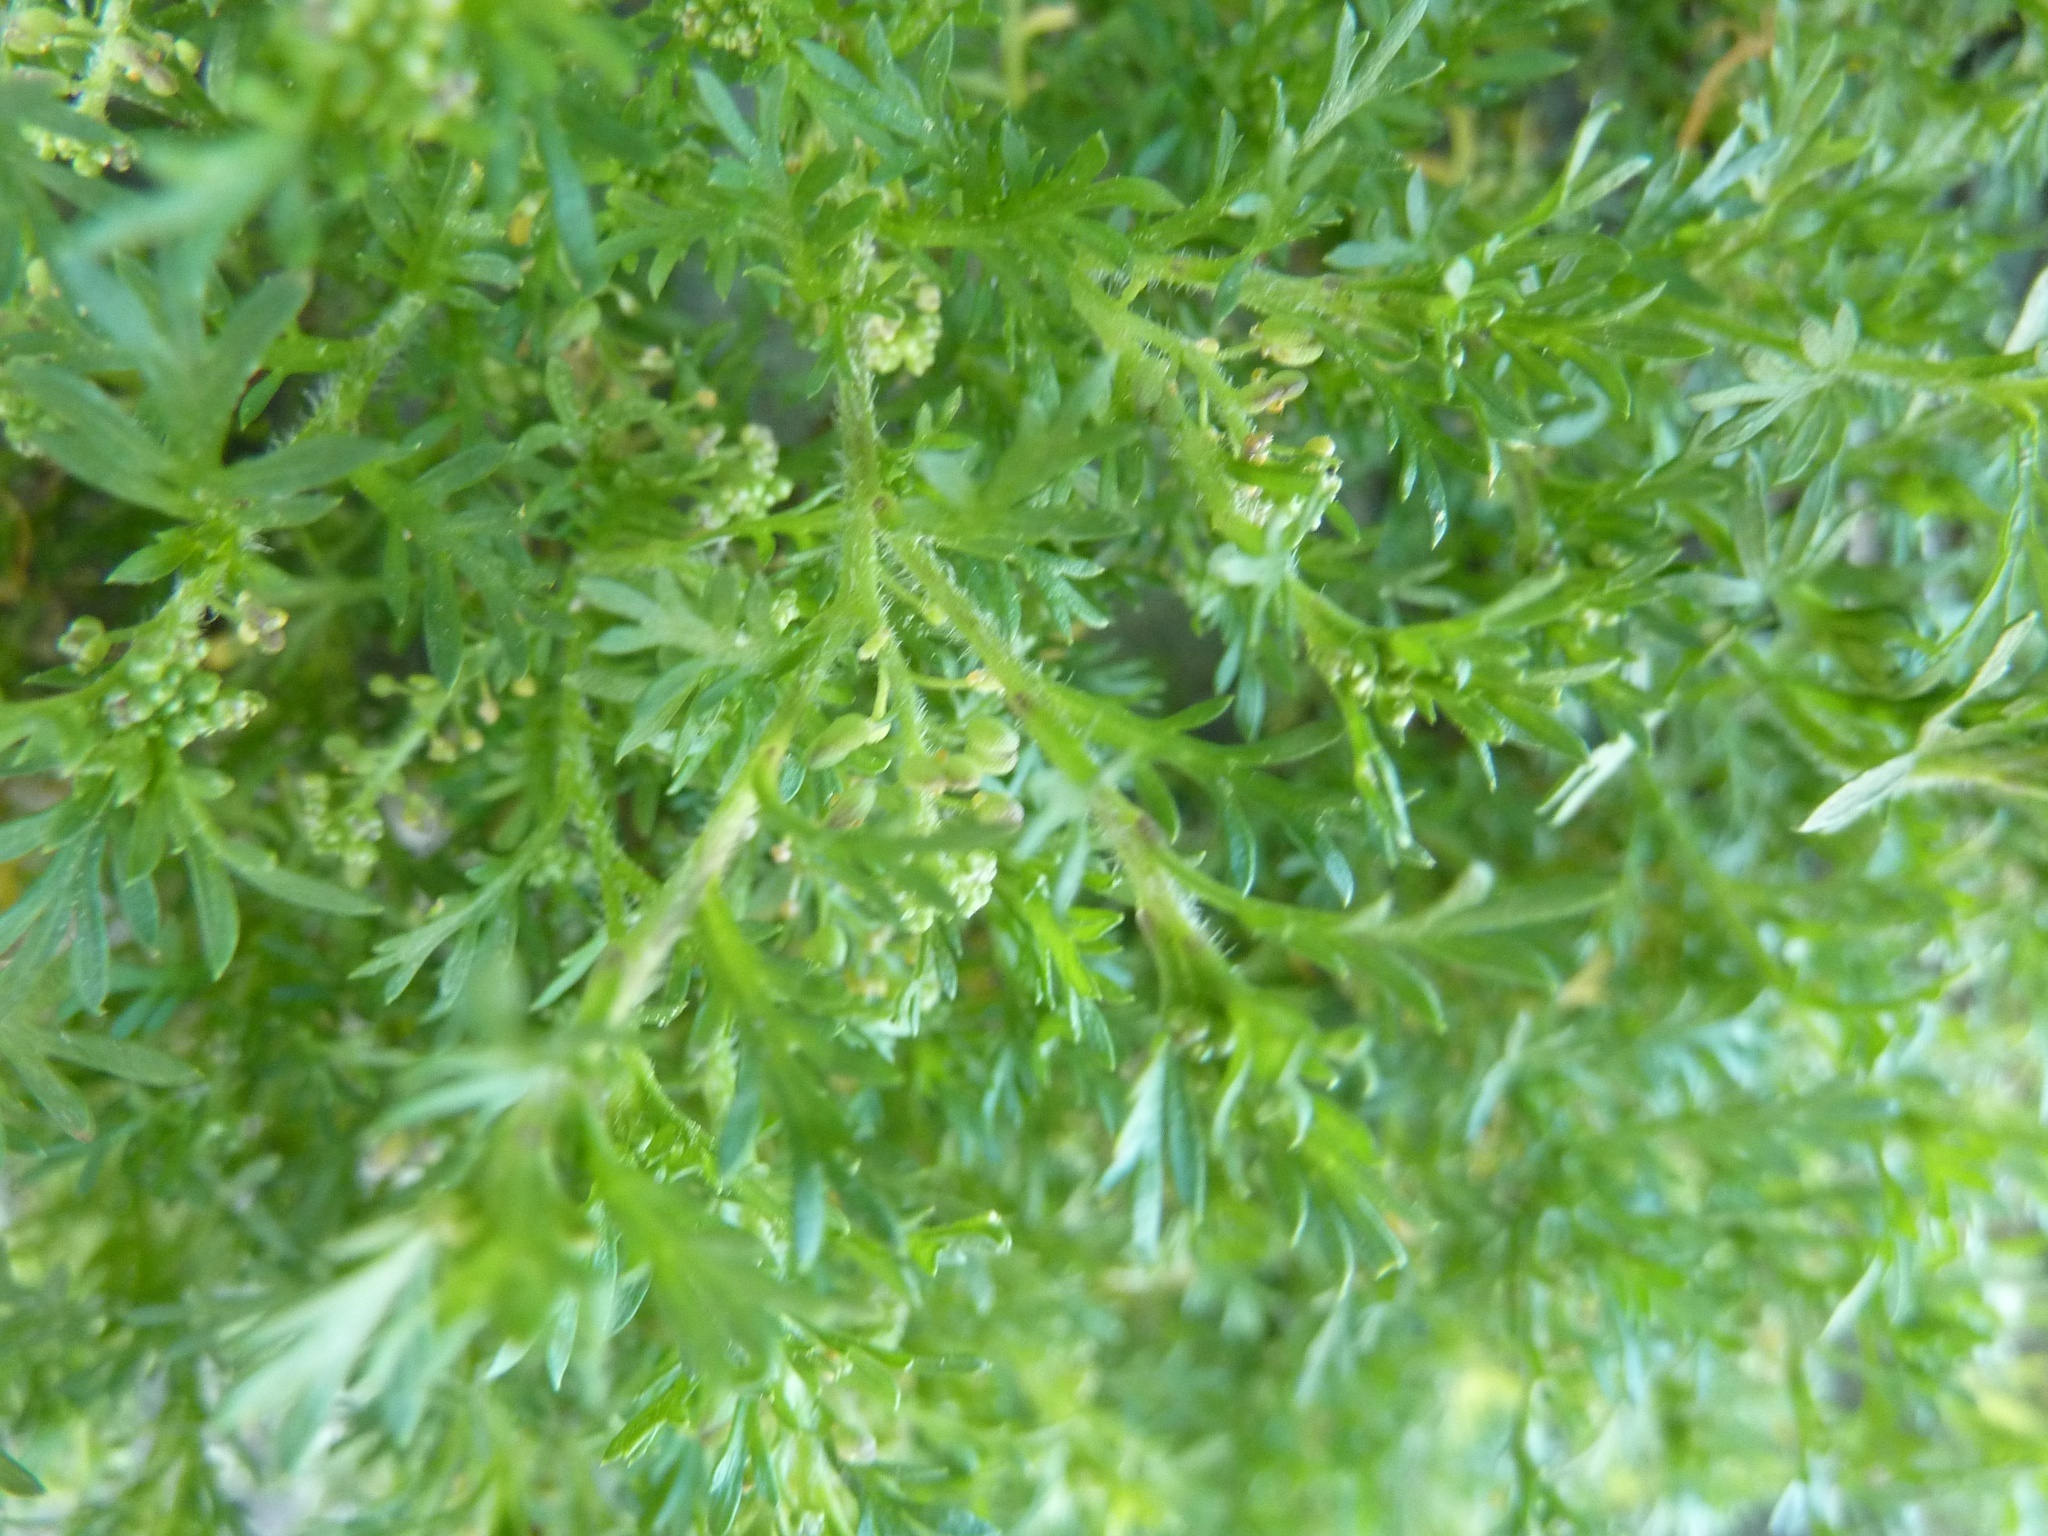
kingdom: Plantae
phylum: Tracheophyta
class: Magnoliopsida
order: Brassicales
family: Brassicaceae
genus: Lepidium
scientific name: Lepidium didymum
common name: Lesser swinecress
